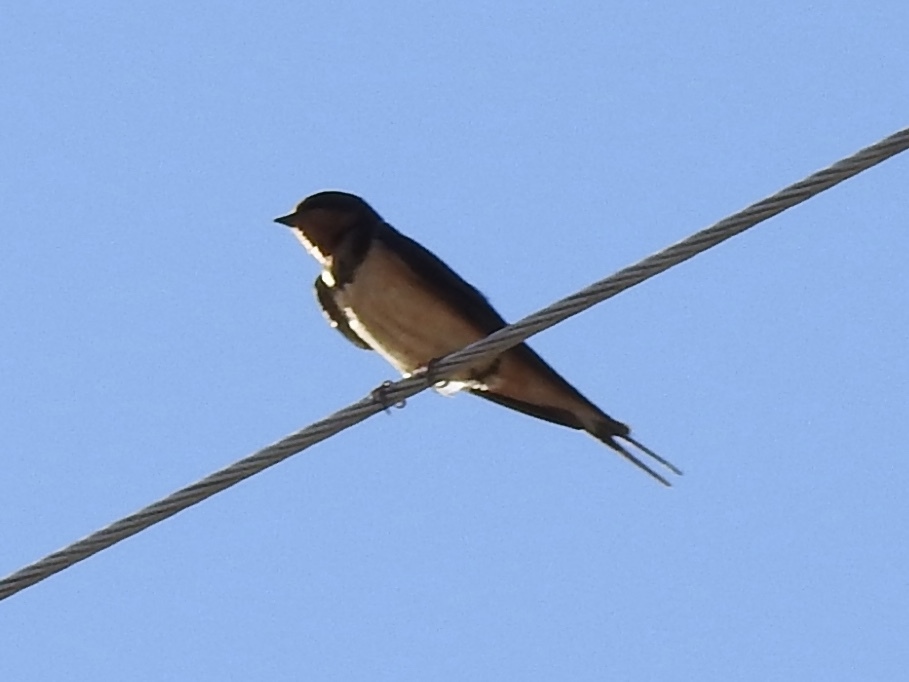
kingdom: Animalia
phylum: Chordata
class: Aves
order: Passeriformes
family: Hirundinidae
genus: Hirundo
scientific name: Hirundo rustica
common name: Barn swallow
